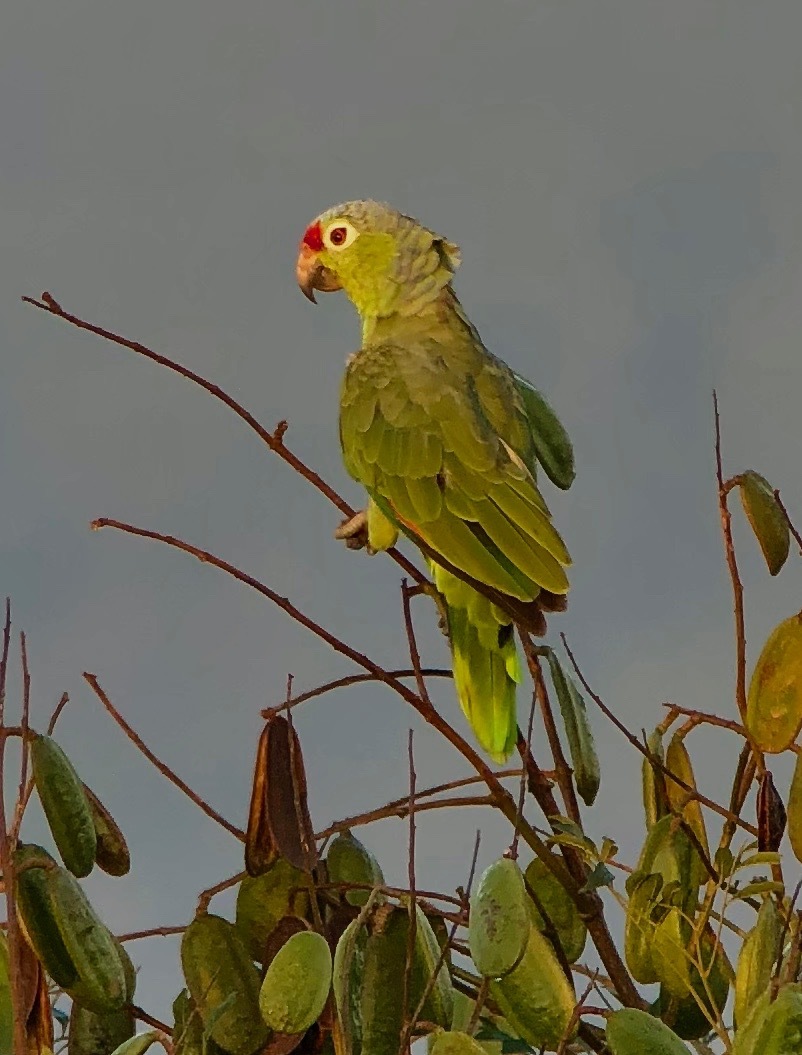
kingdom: Animalia
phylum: Chordata
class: Aves
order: Psittaciformes
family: Psittacidae
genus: Amazona
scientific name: Amazona autumnalis
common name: Red-lored amazon
